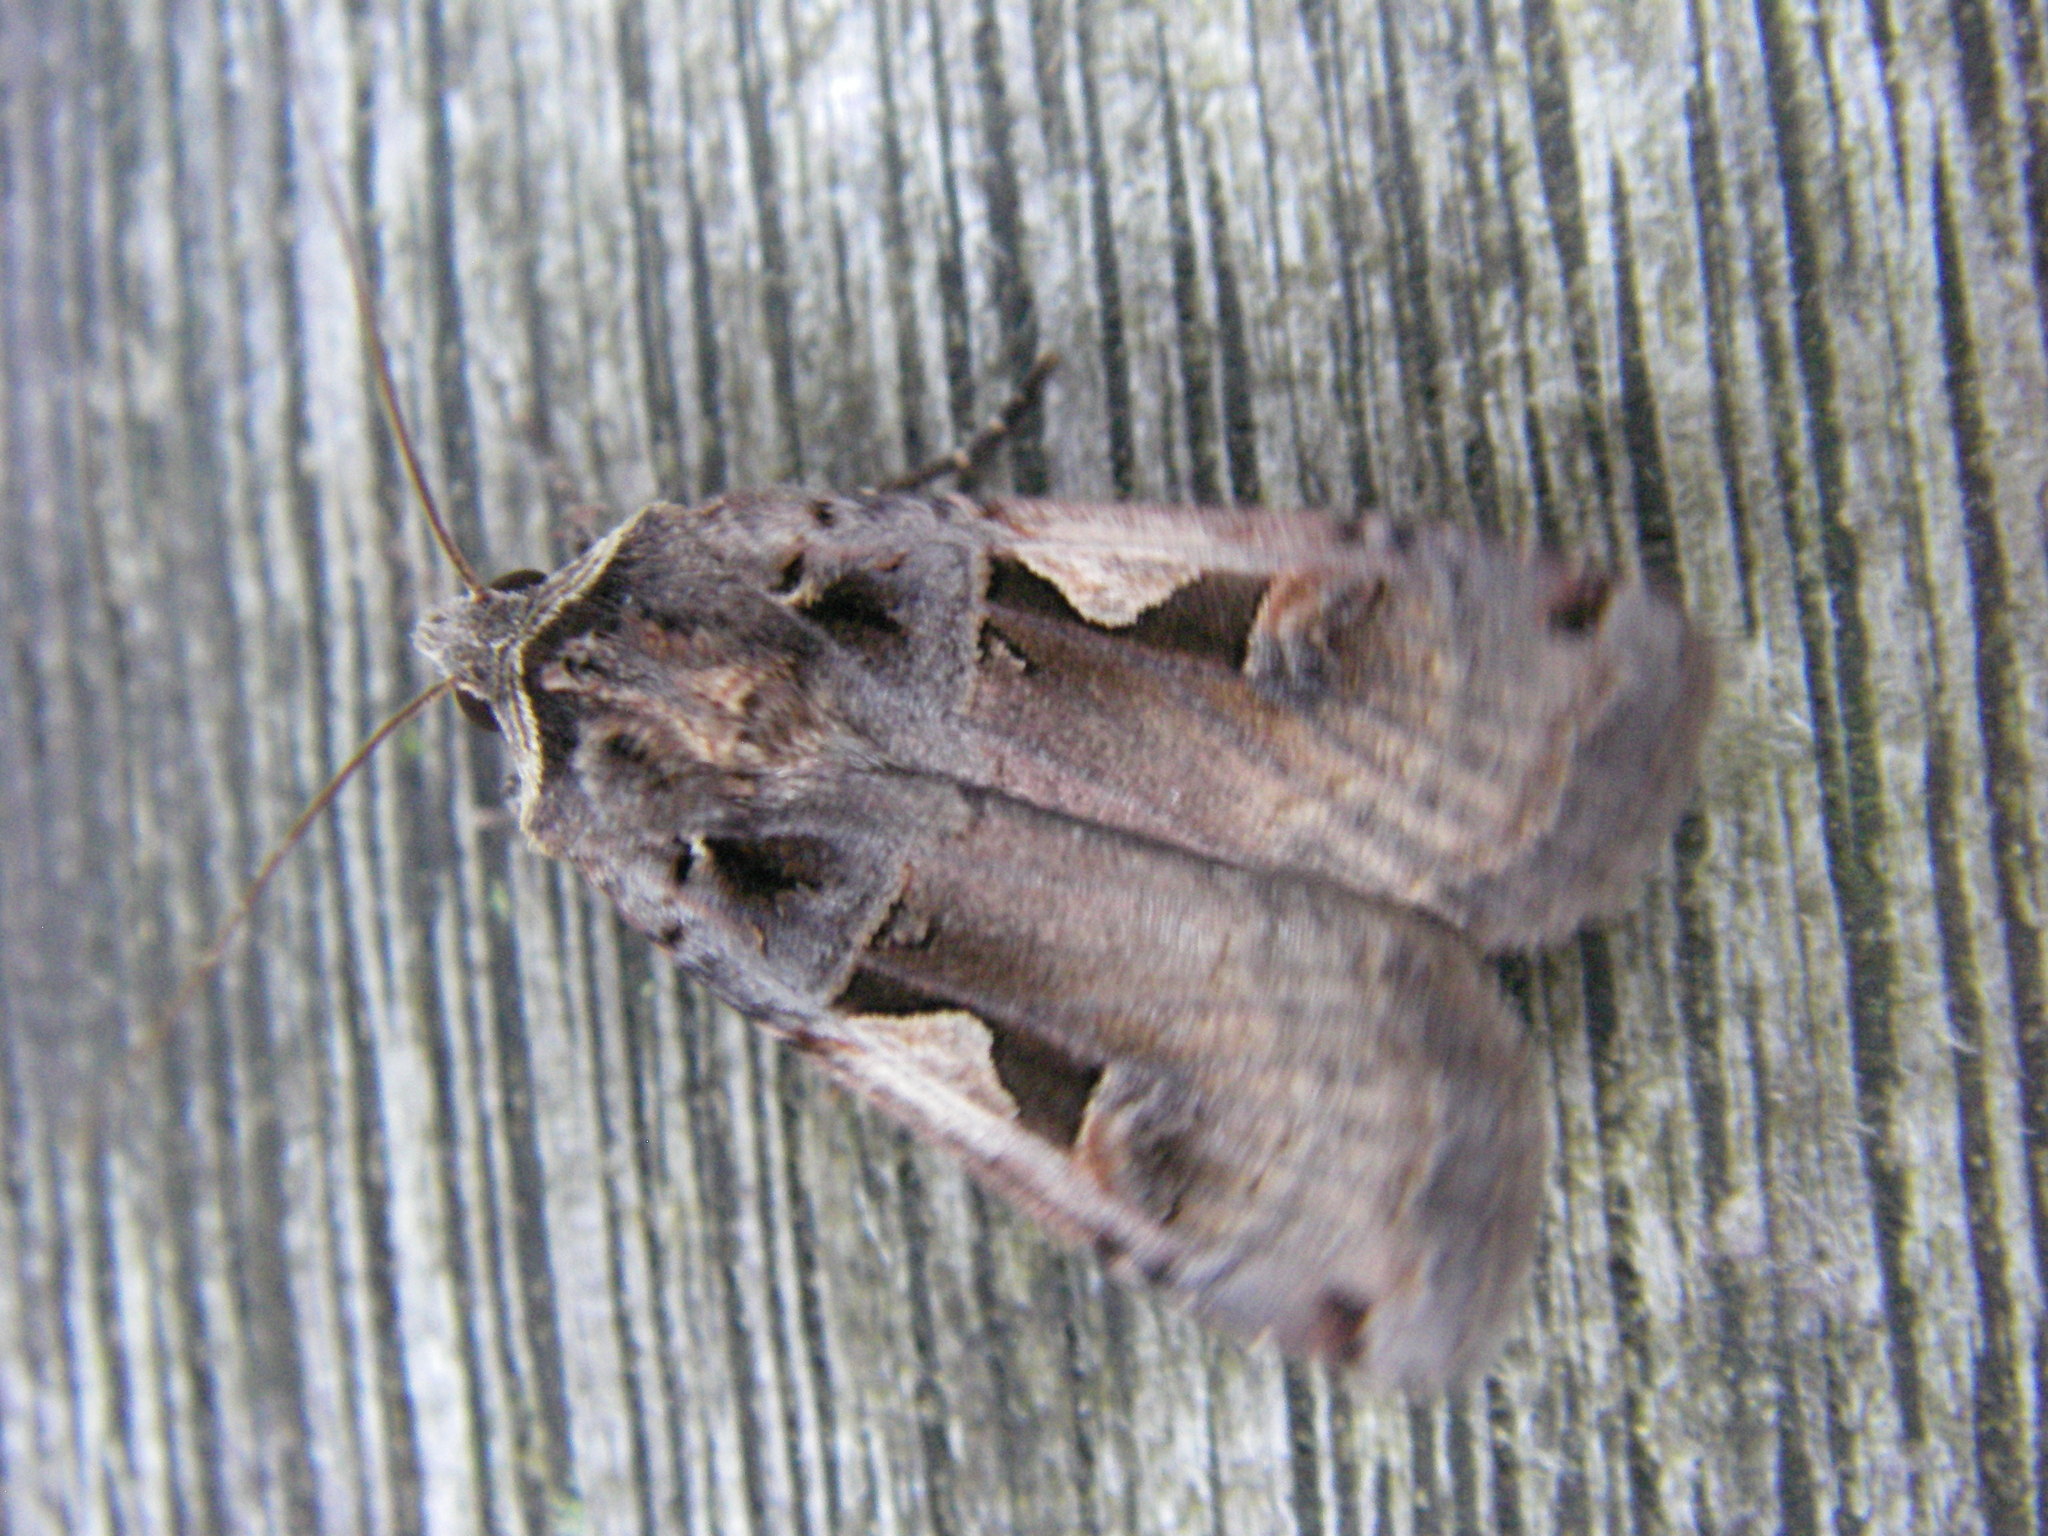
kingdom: Animalia
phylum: Arthropoda
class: Insecta
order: Lepidoptera
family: Noctuidae
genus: Xestia
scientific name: Xestia c-nigrum
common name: Setaceous hebrew character
